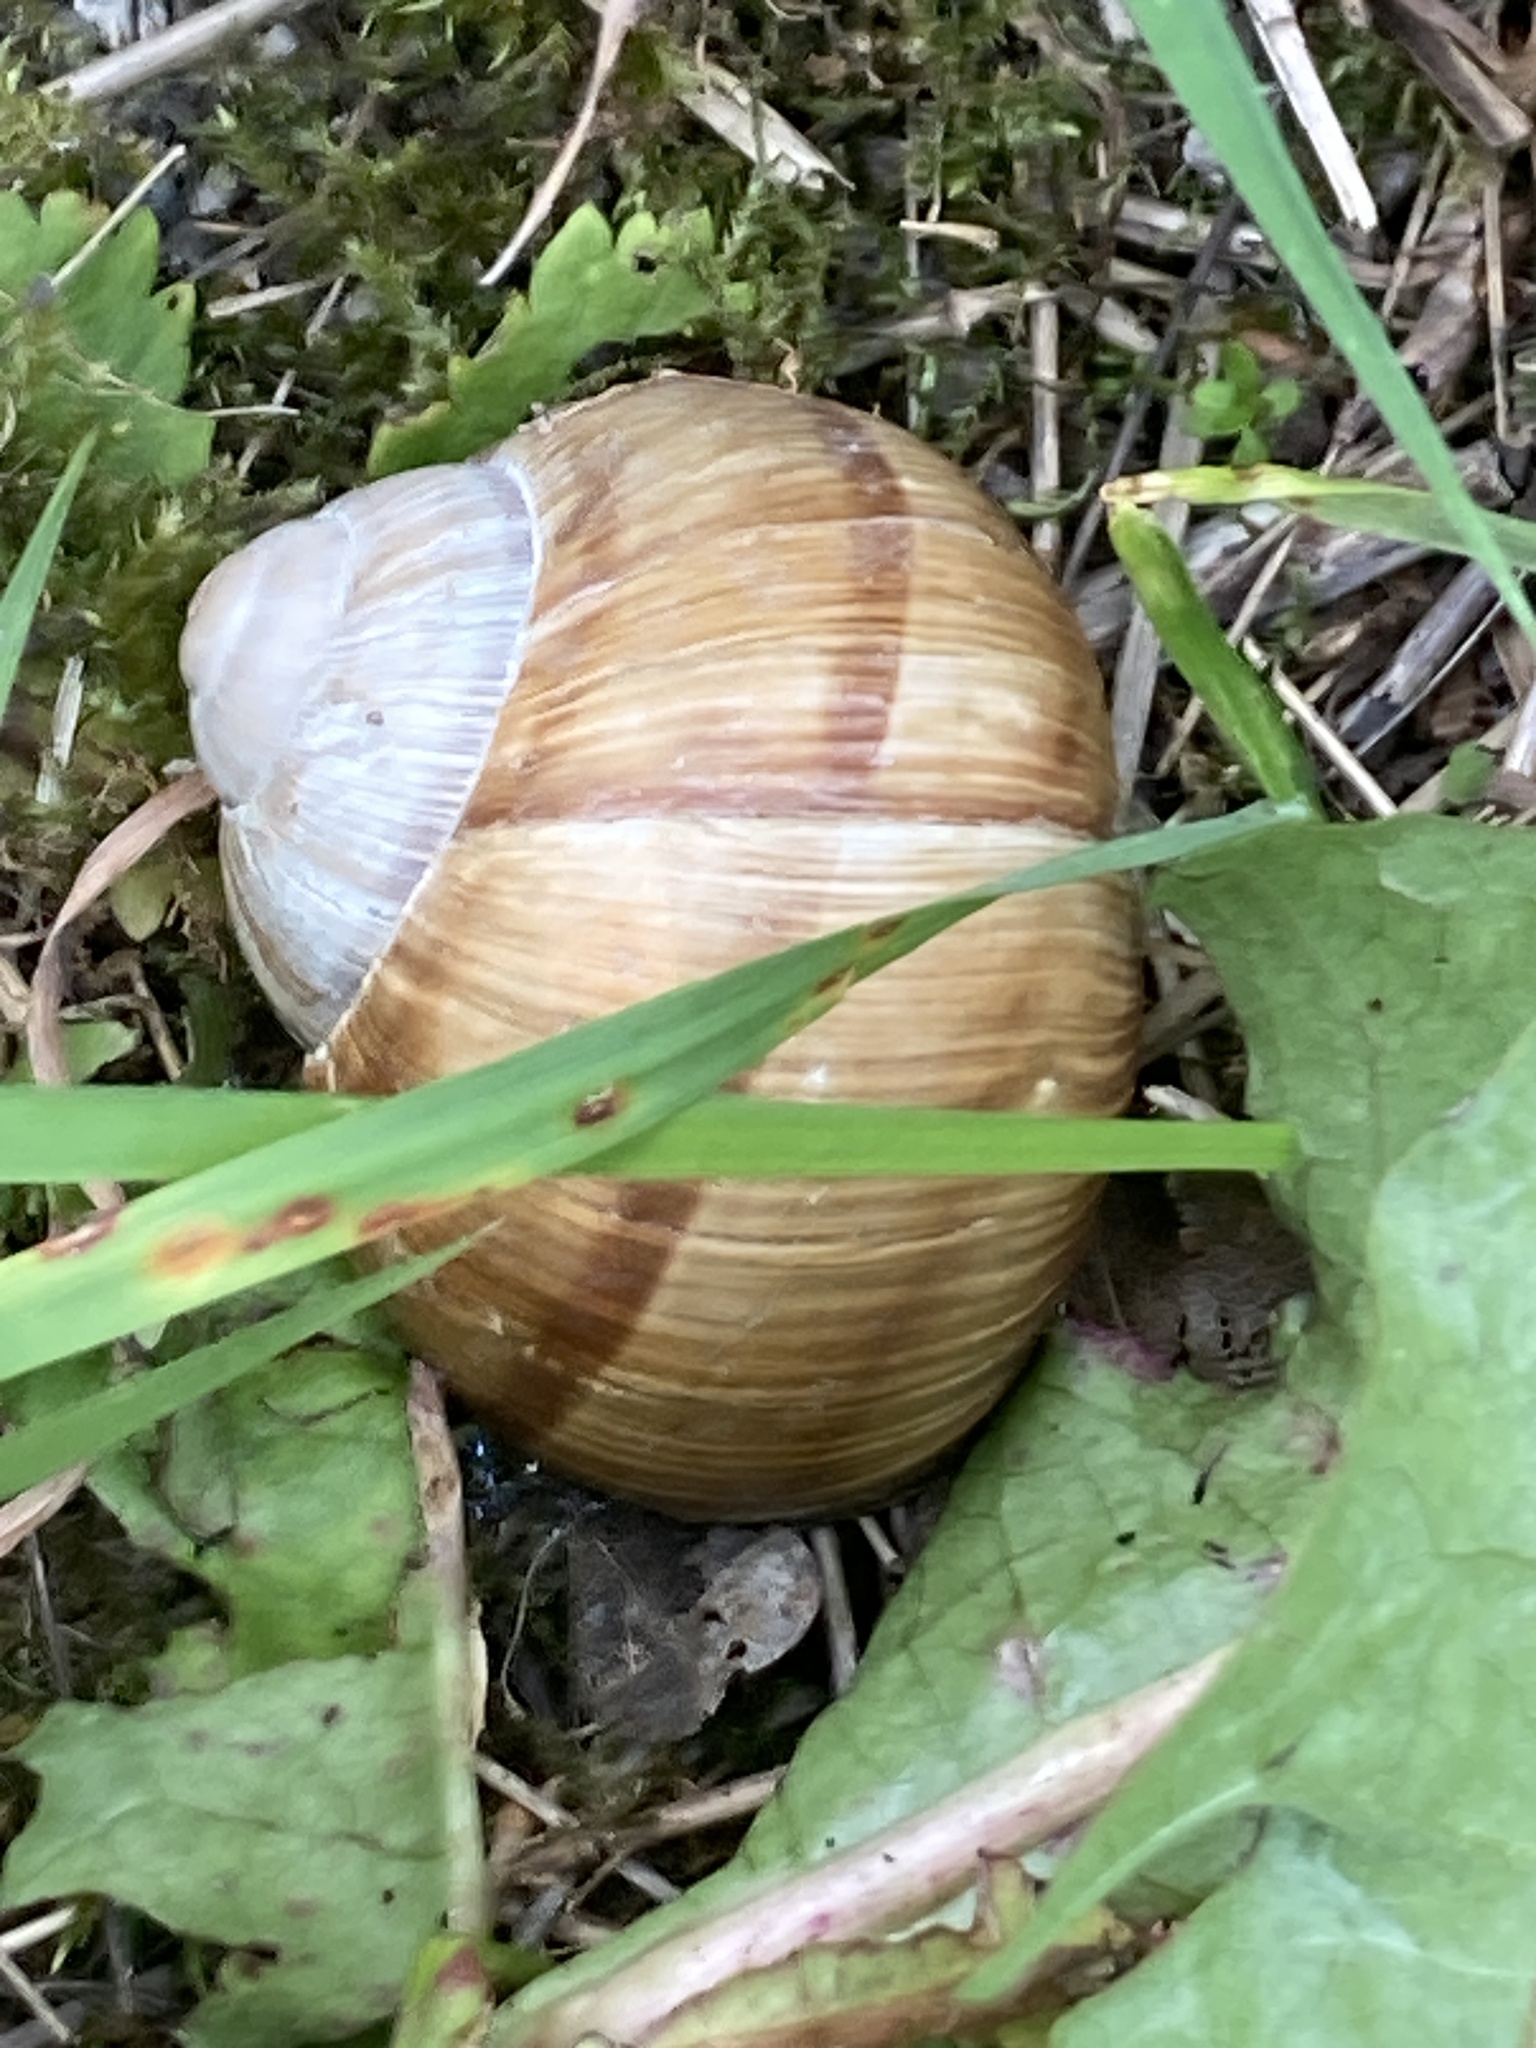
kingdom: Animalia
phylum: Mollusca
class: Gastropoda
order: Stylommatophora
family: Helicidae
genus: Helix
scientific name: Helix pomatia
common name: Roman snail
